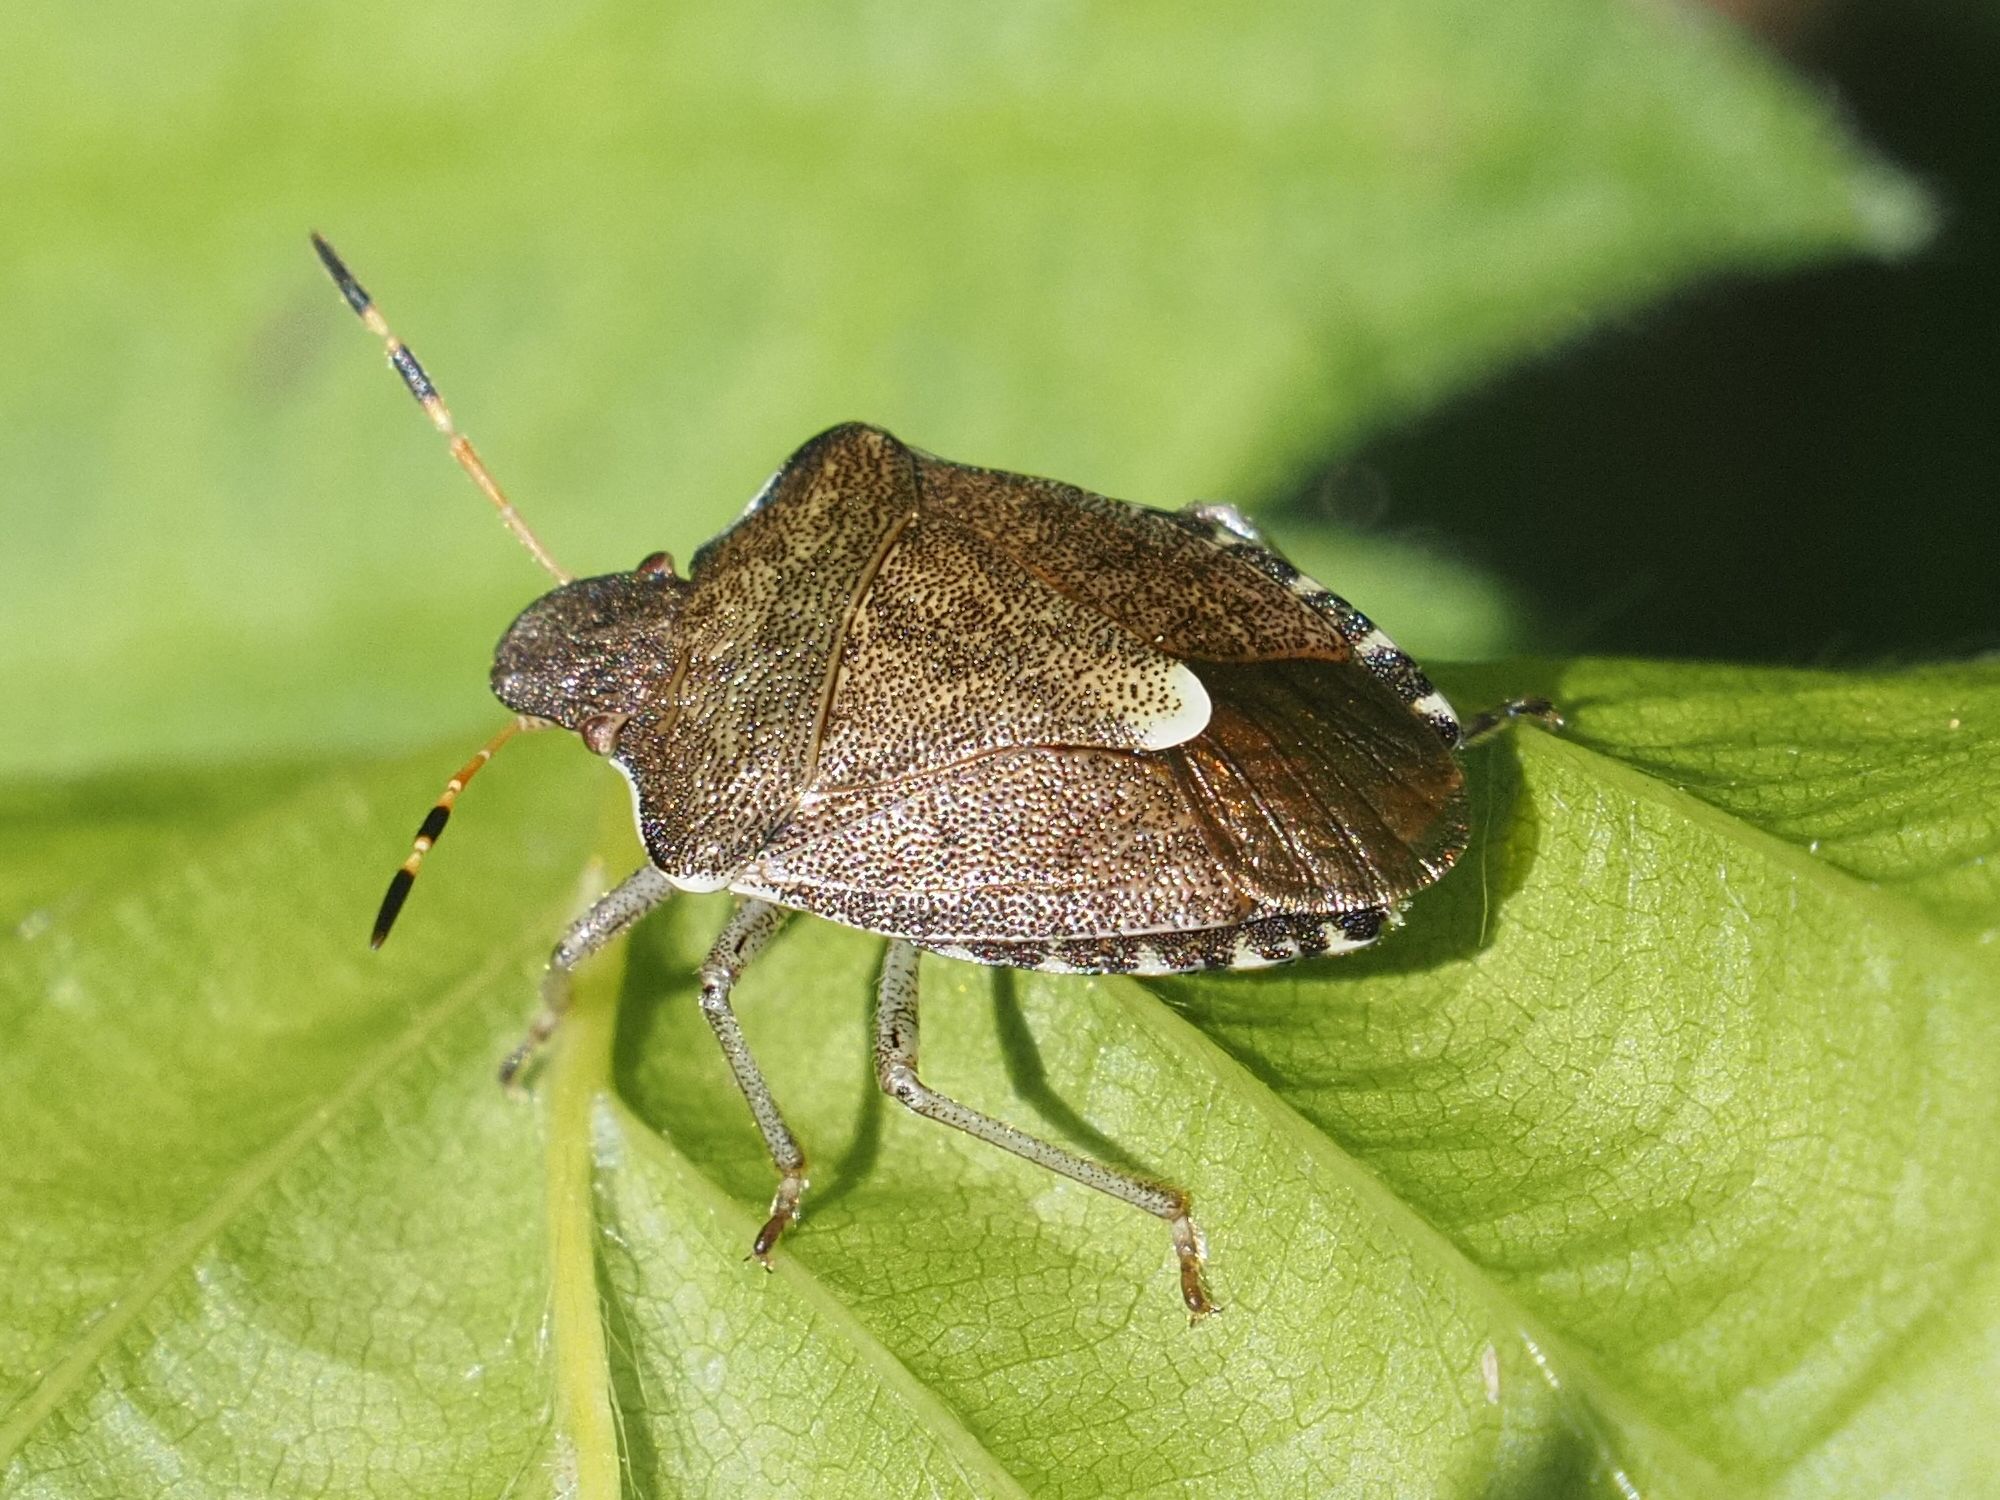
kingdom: Animalia
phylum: Arthropoda
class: Insecta
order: Hemiptera
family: Pentatomidae
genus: Holcostethus
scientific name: Holcostethus strictus
